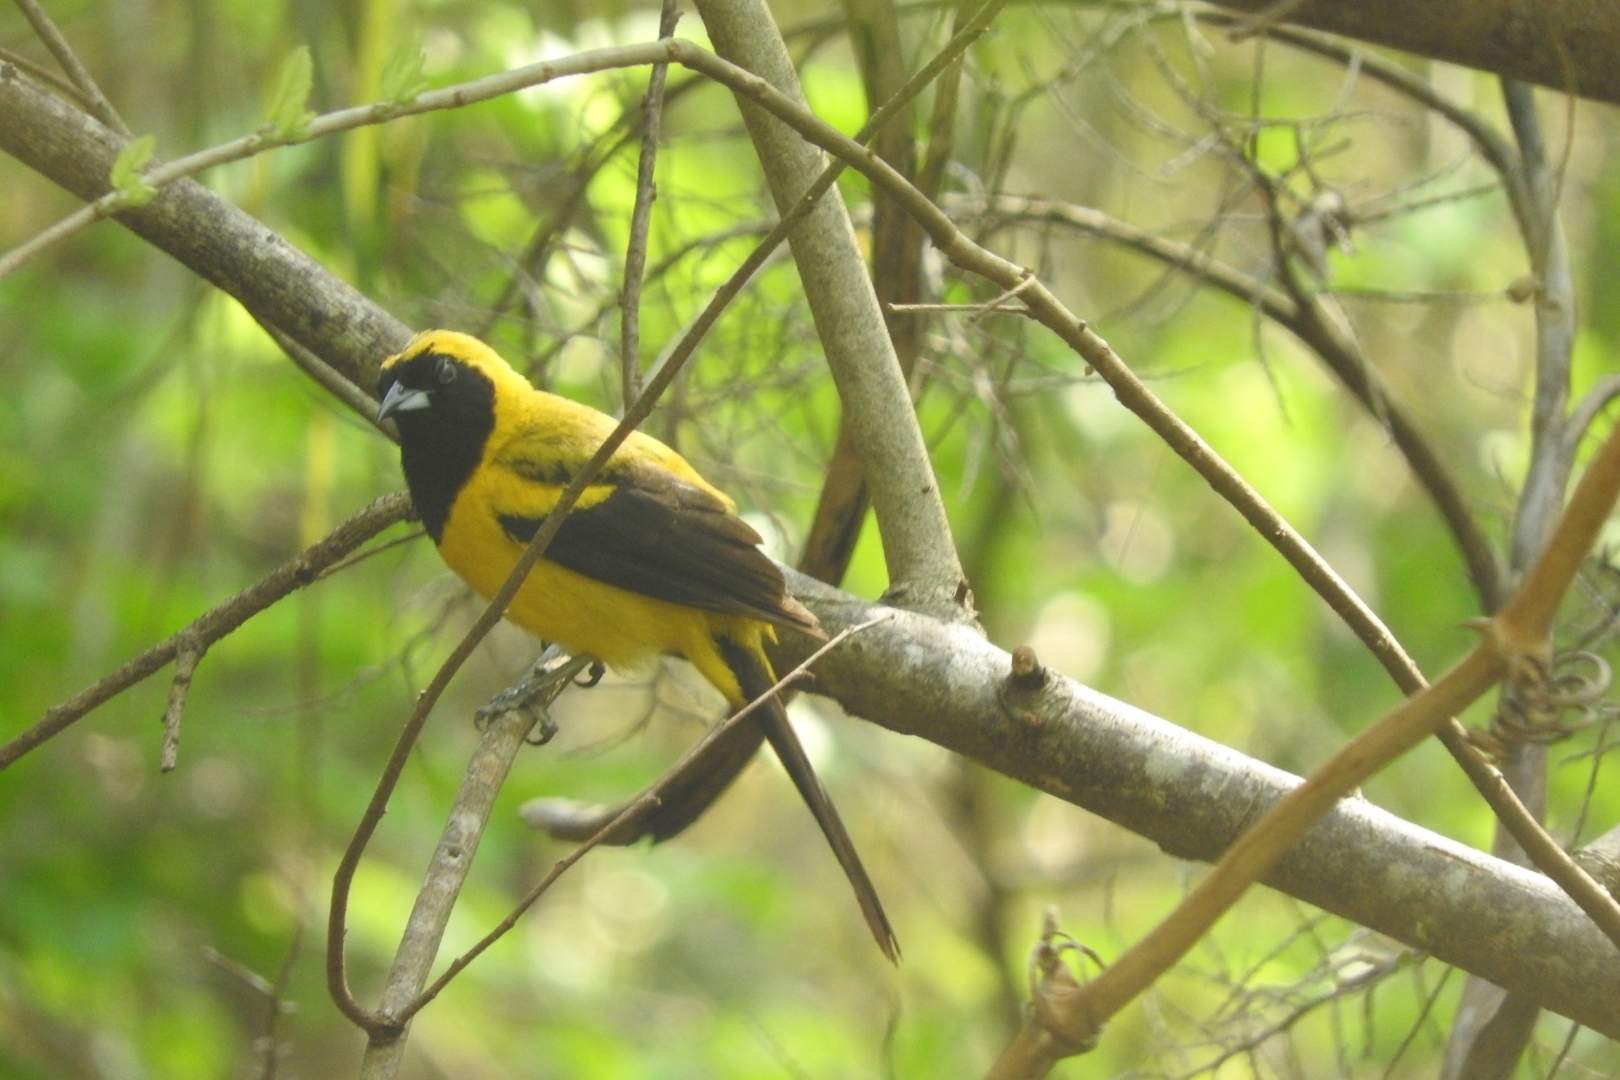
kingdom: Animalia
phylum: Chordata
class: Aves
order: Passeriformes
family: Icteridae
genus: Icterus
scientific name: Icterus prosthemelas
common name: Black-cowled oriole
